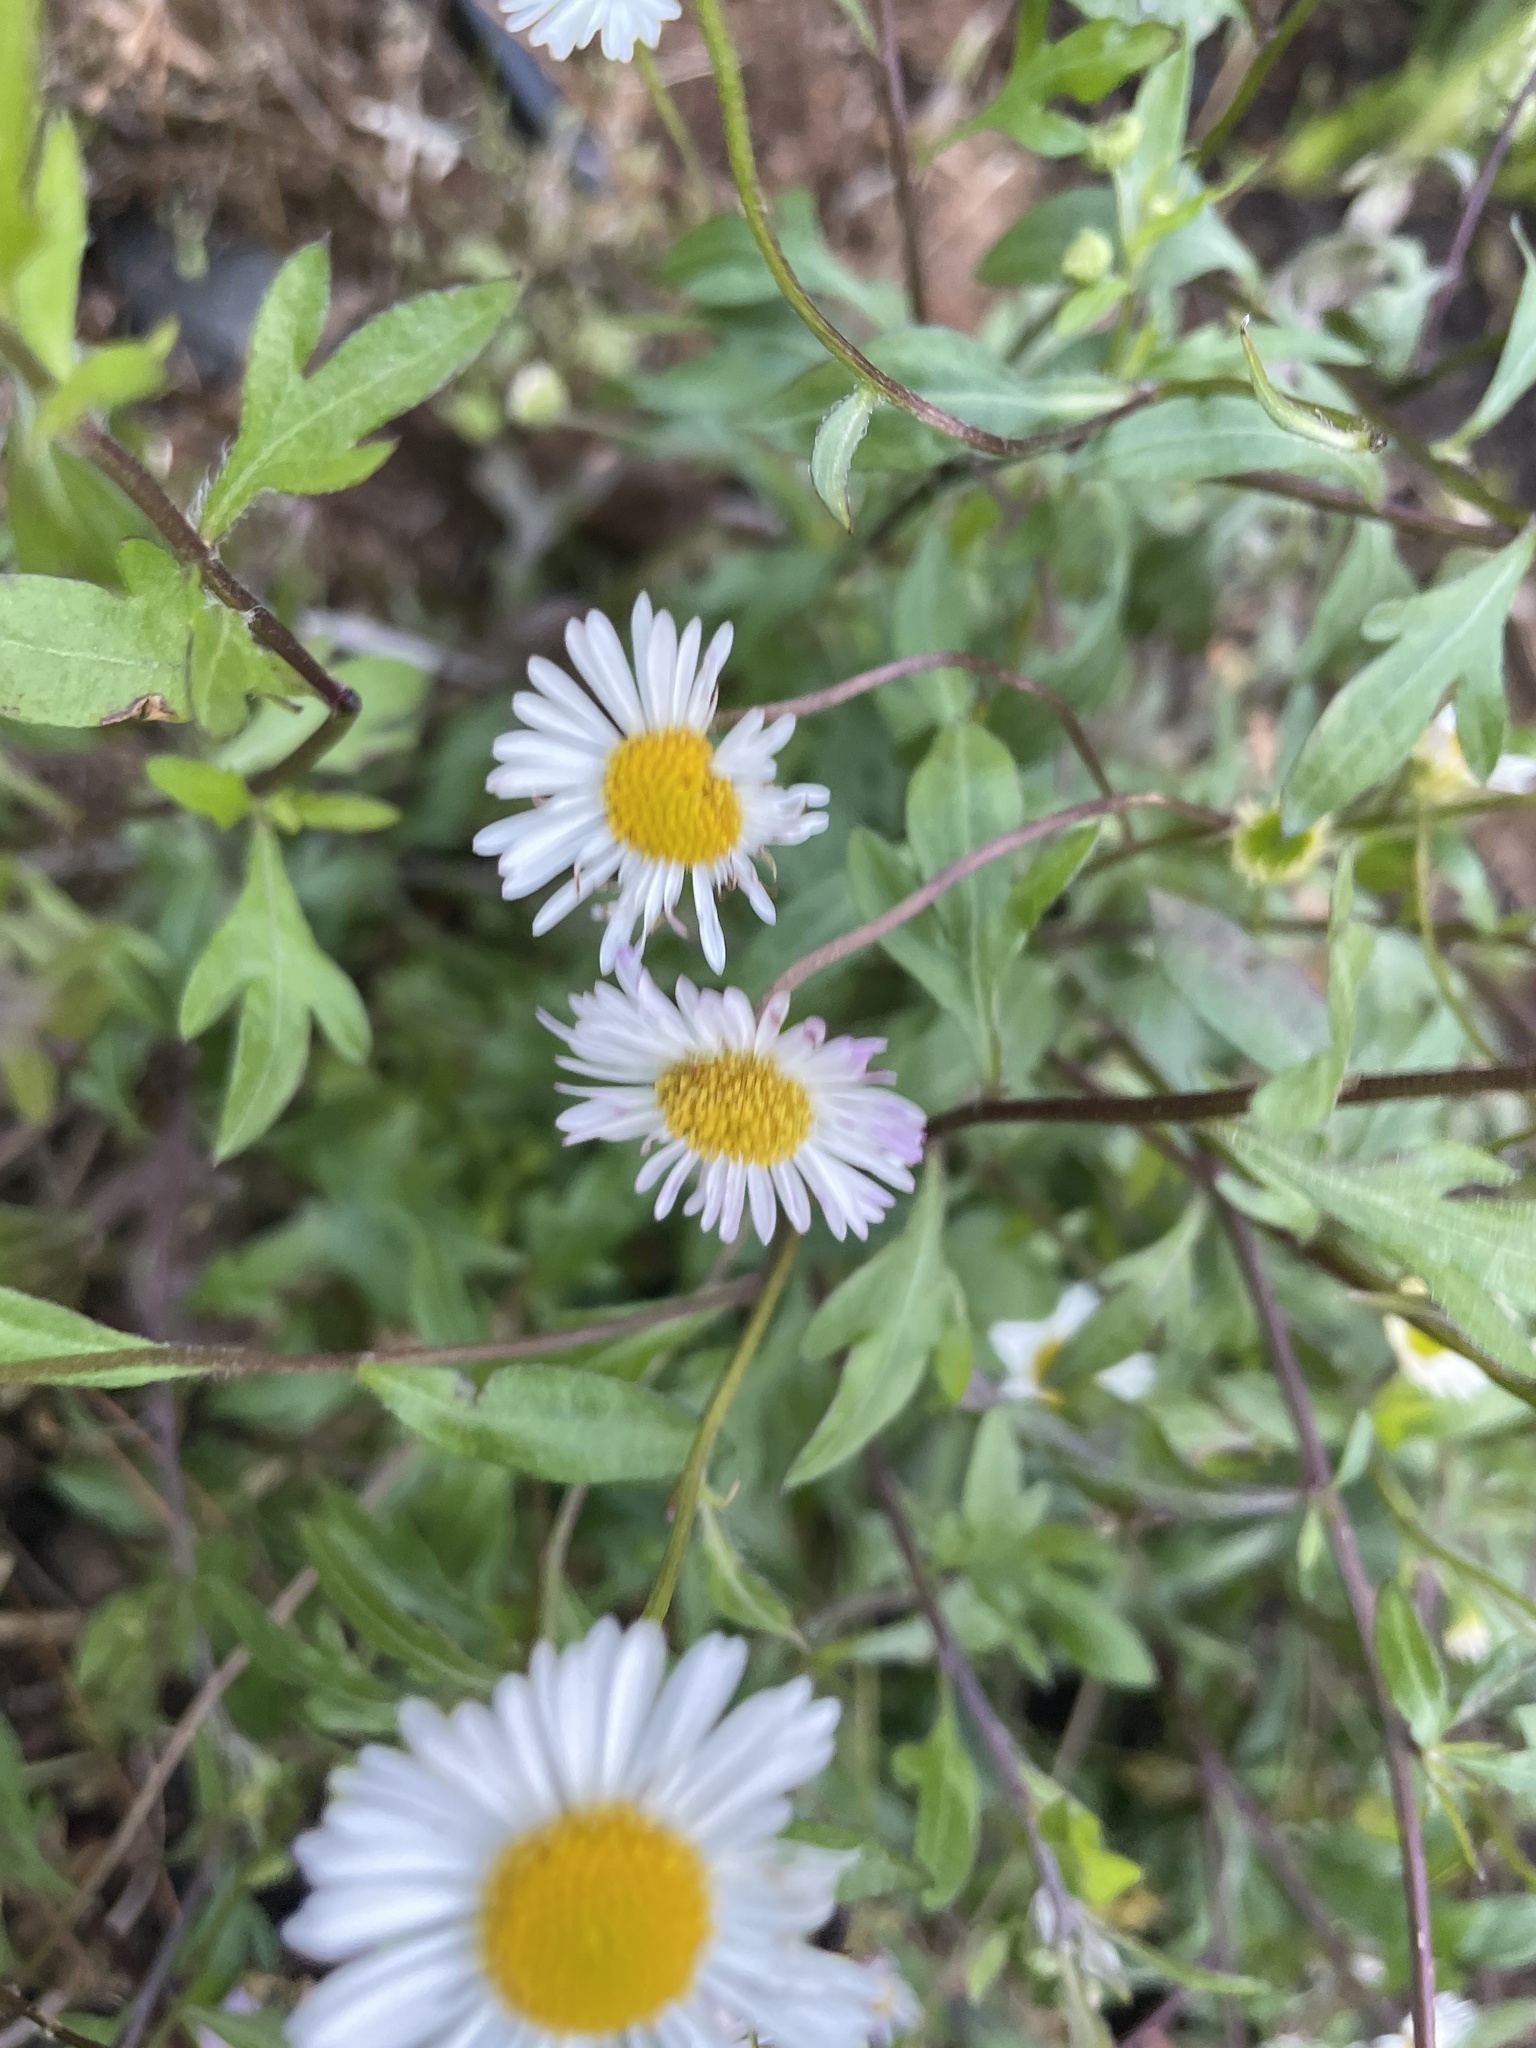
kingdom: Plantae
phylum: Tracheophyta
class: Magnoliopsida
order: Asterales
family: Asteraceae
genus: Erigeron
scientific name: Erigeron karvinskianus
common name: Mexican fleabane
